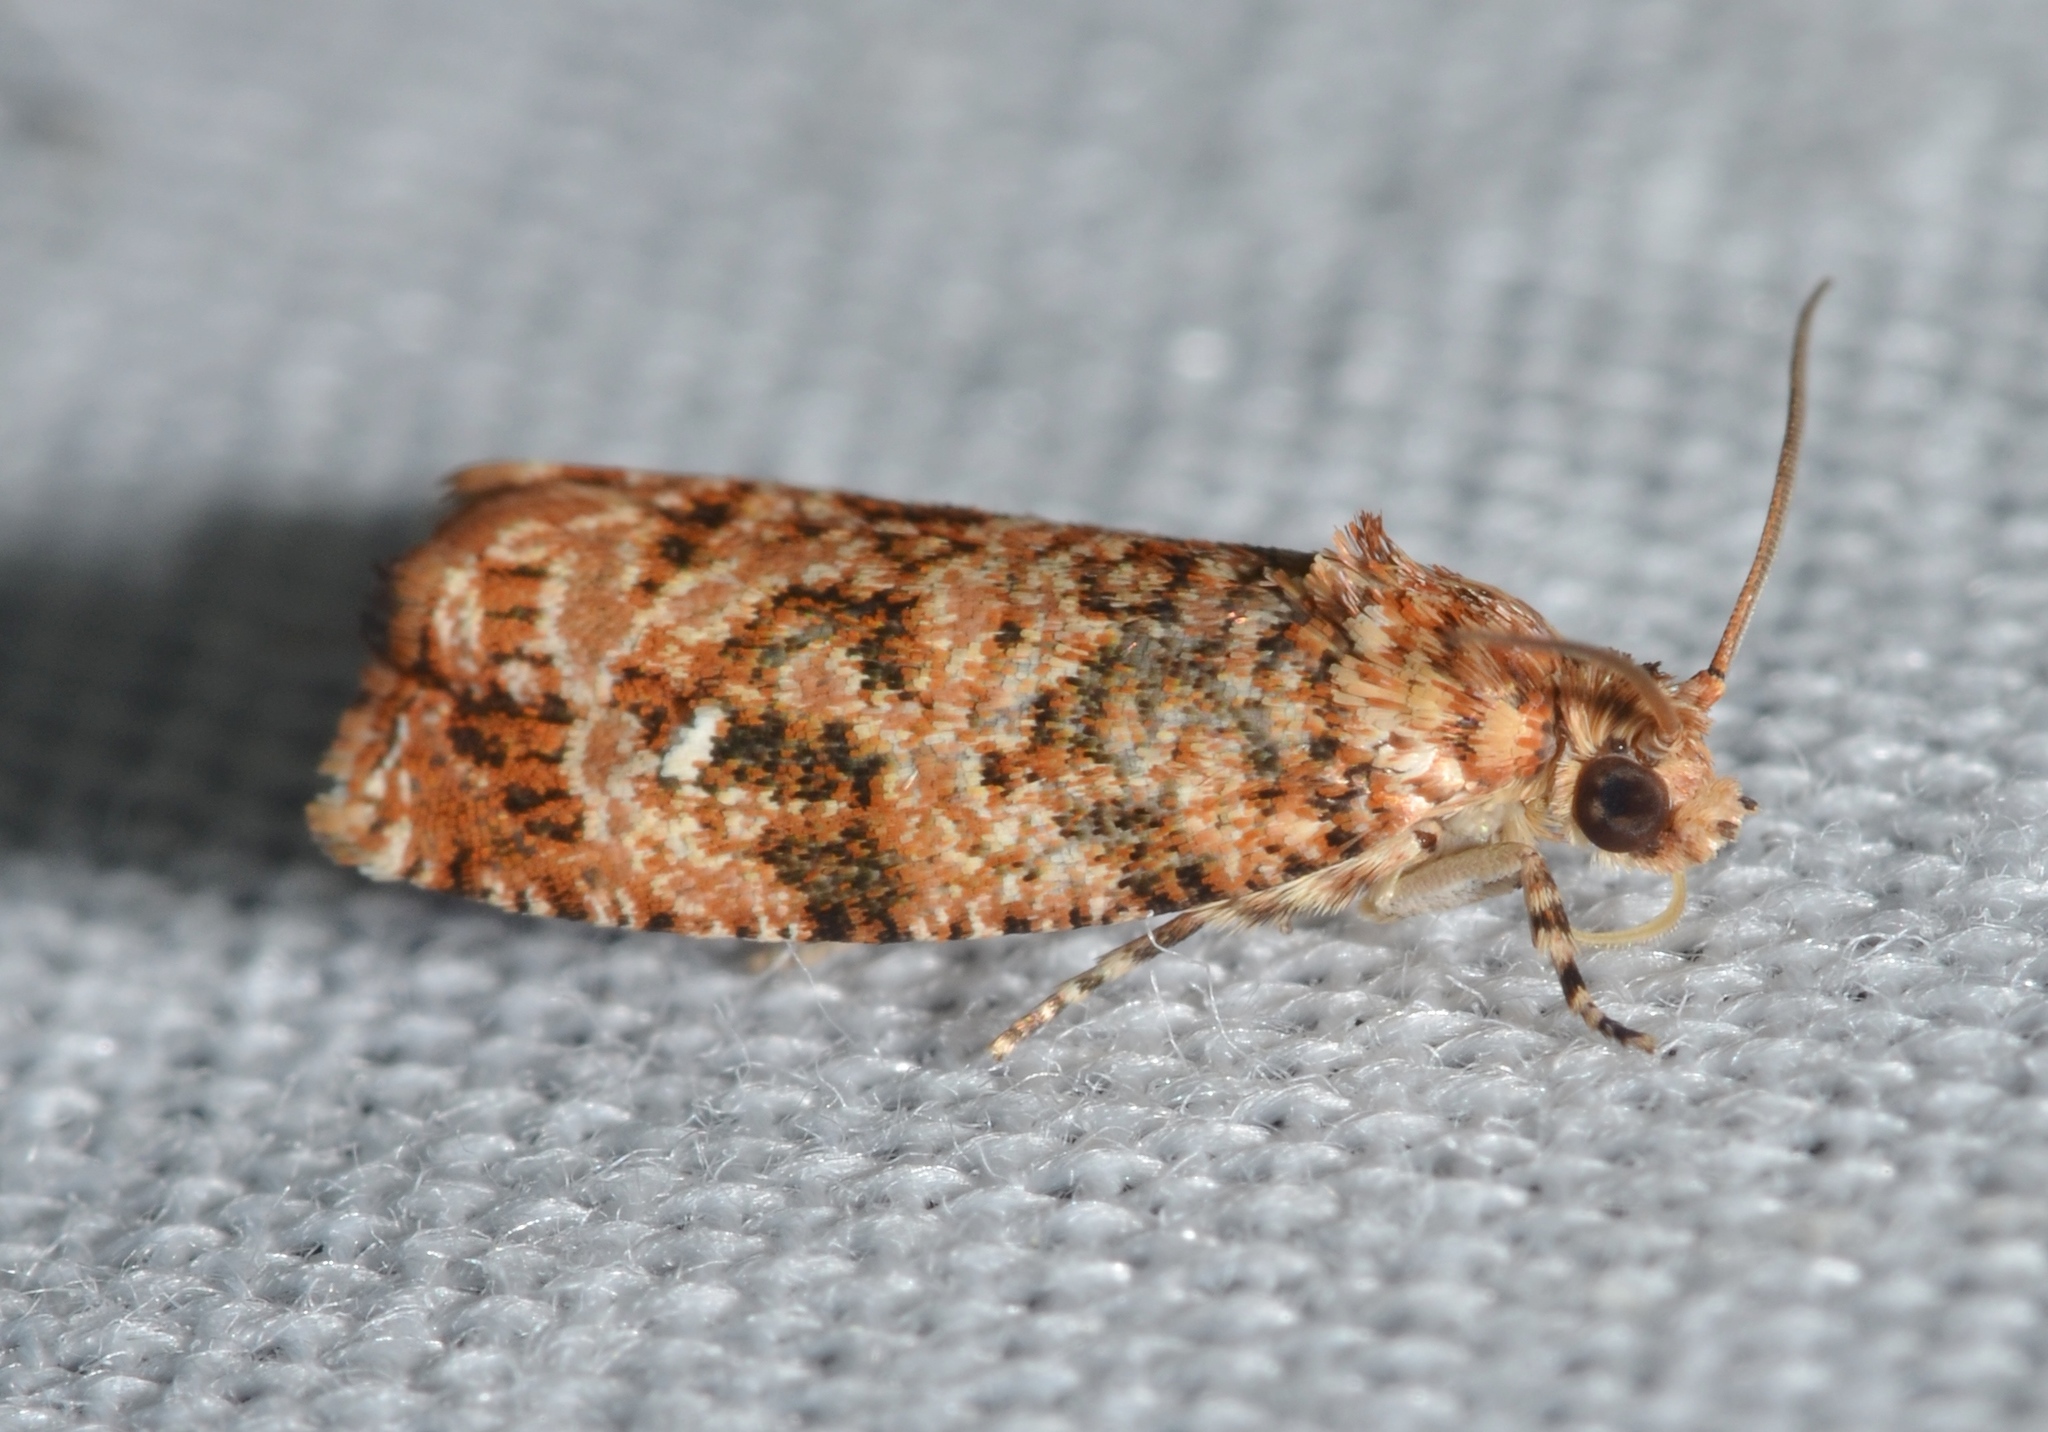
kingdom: Animalia
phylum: Arthropoda
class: Insecta
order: Lepidoptera
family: Tortricidae
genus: Phaecasiophora
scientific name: Phaecasiophora niveiguttana
